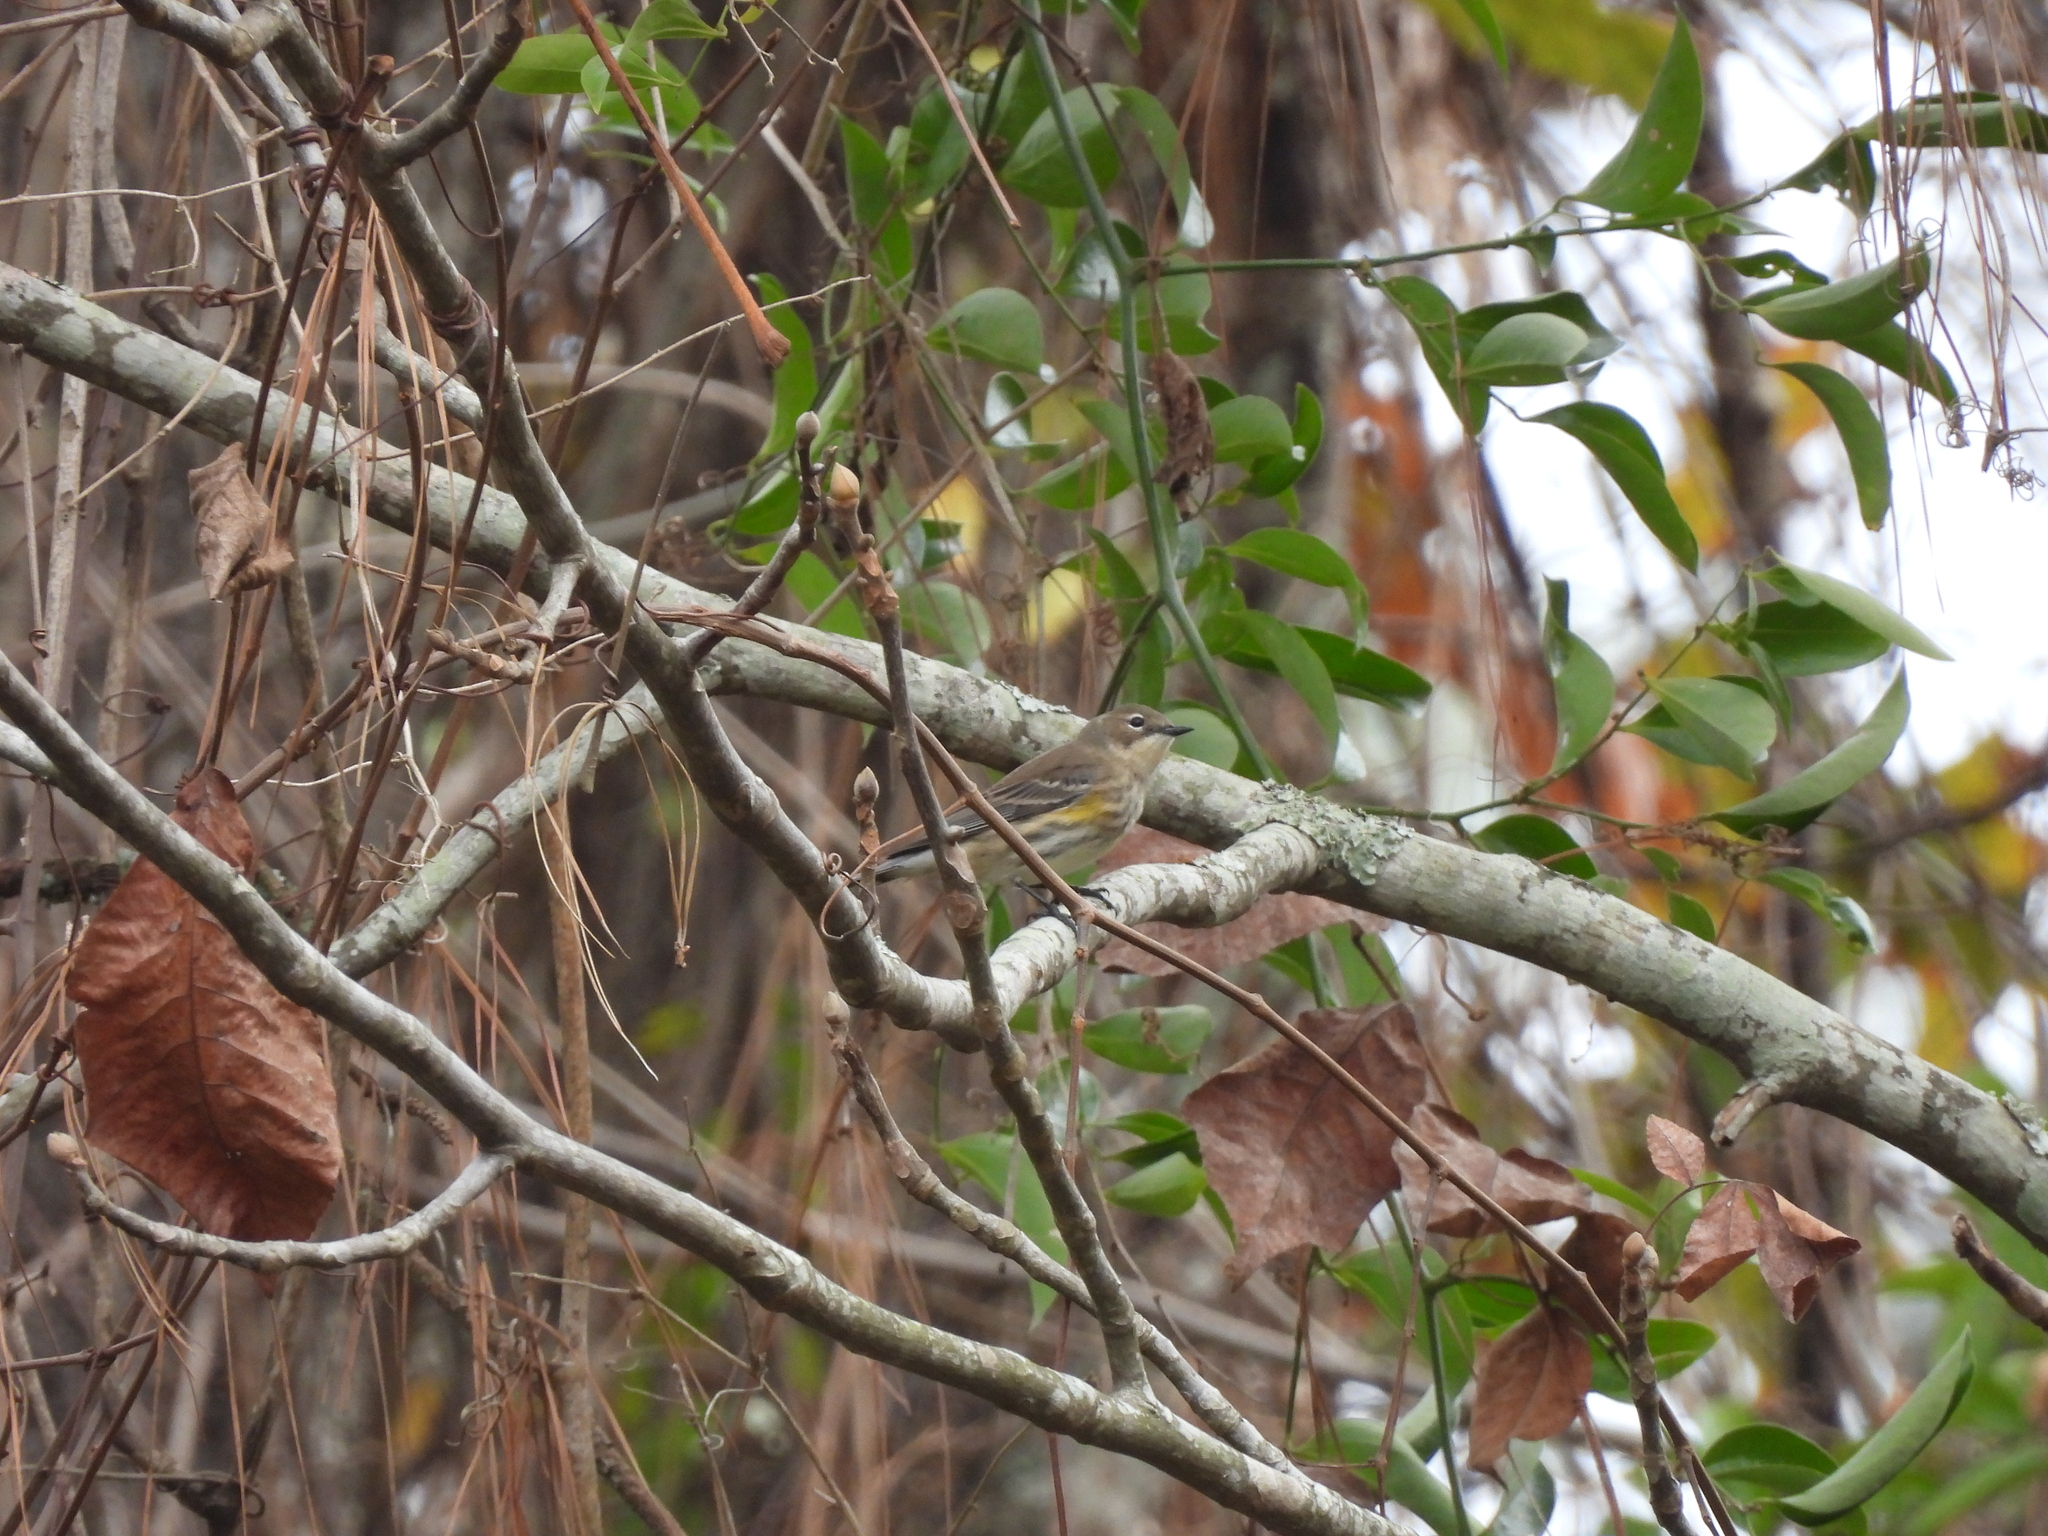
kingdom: Animalia
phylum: Chordata
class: Aves
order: Passeriformes
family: Parulidae
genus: Setophaga
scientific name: Setophaga coronata
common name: Myrtle warbler
